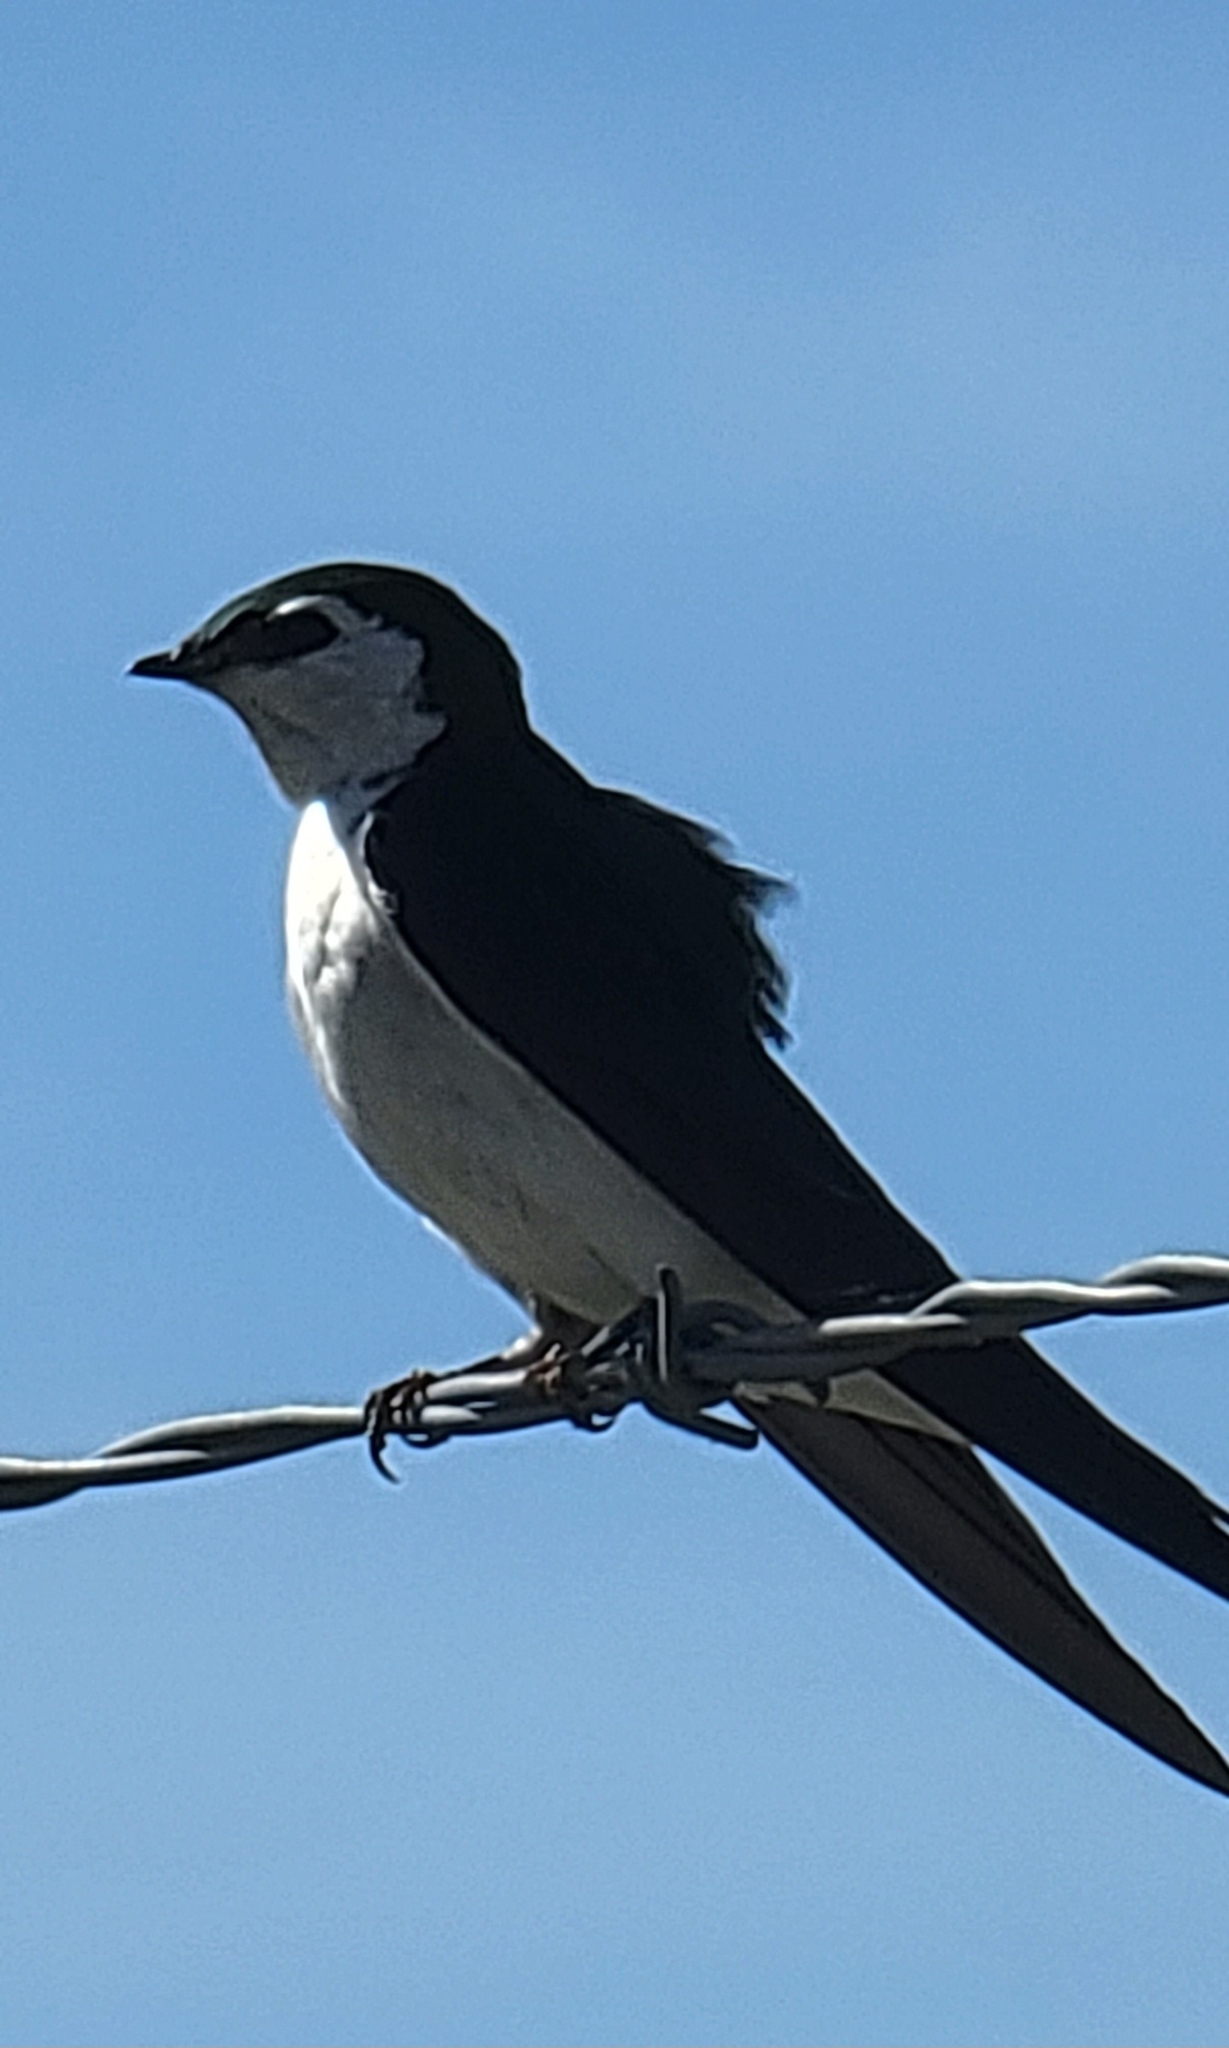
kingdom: Animalia
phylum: Chordata
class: Aves
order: Passeriformes
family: Hirundinidae
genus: Tachycineta
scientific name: Tachycineta thalassina
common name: Violet-green swallow
